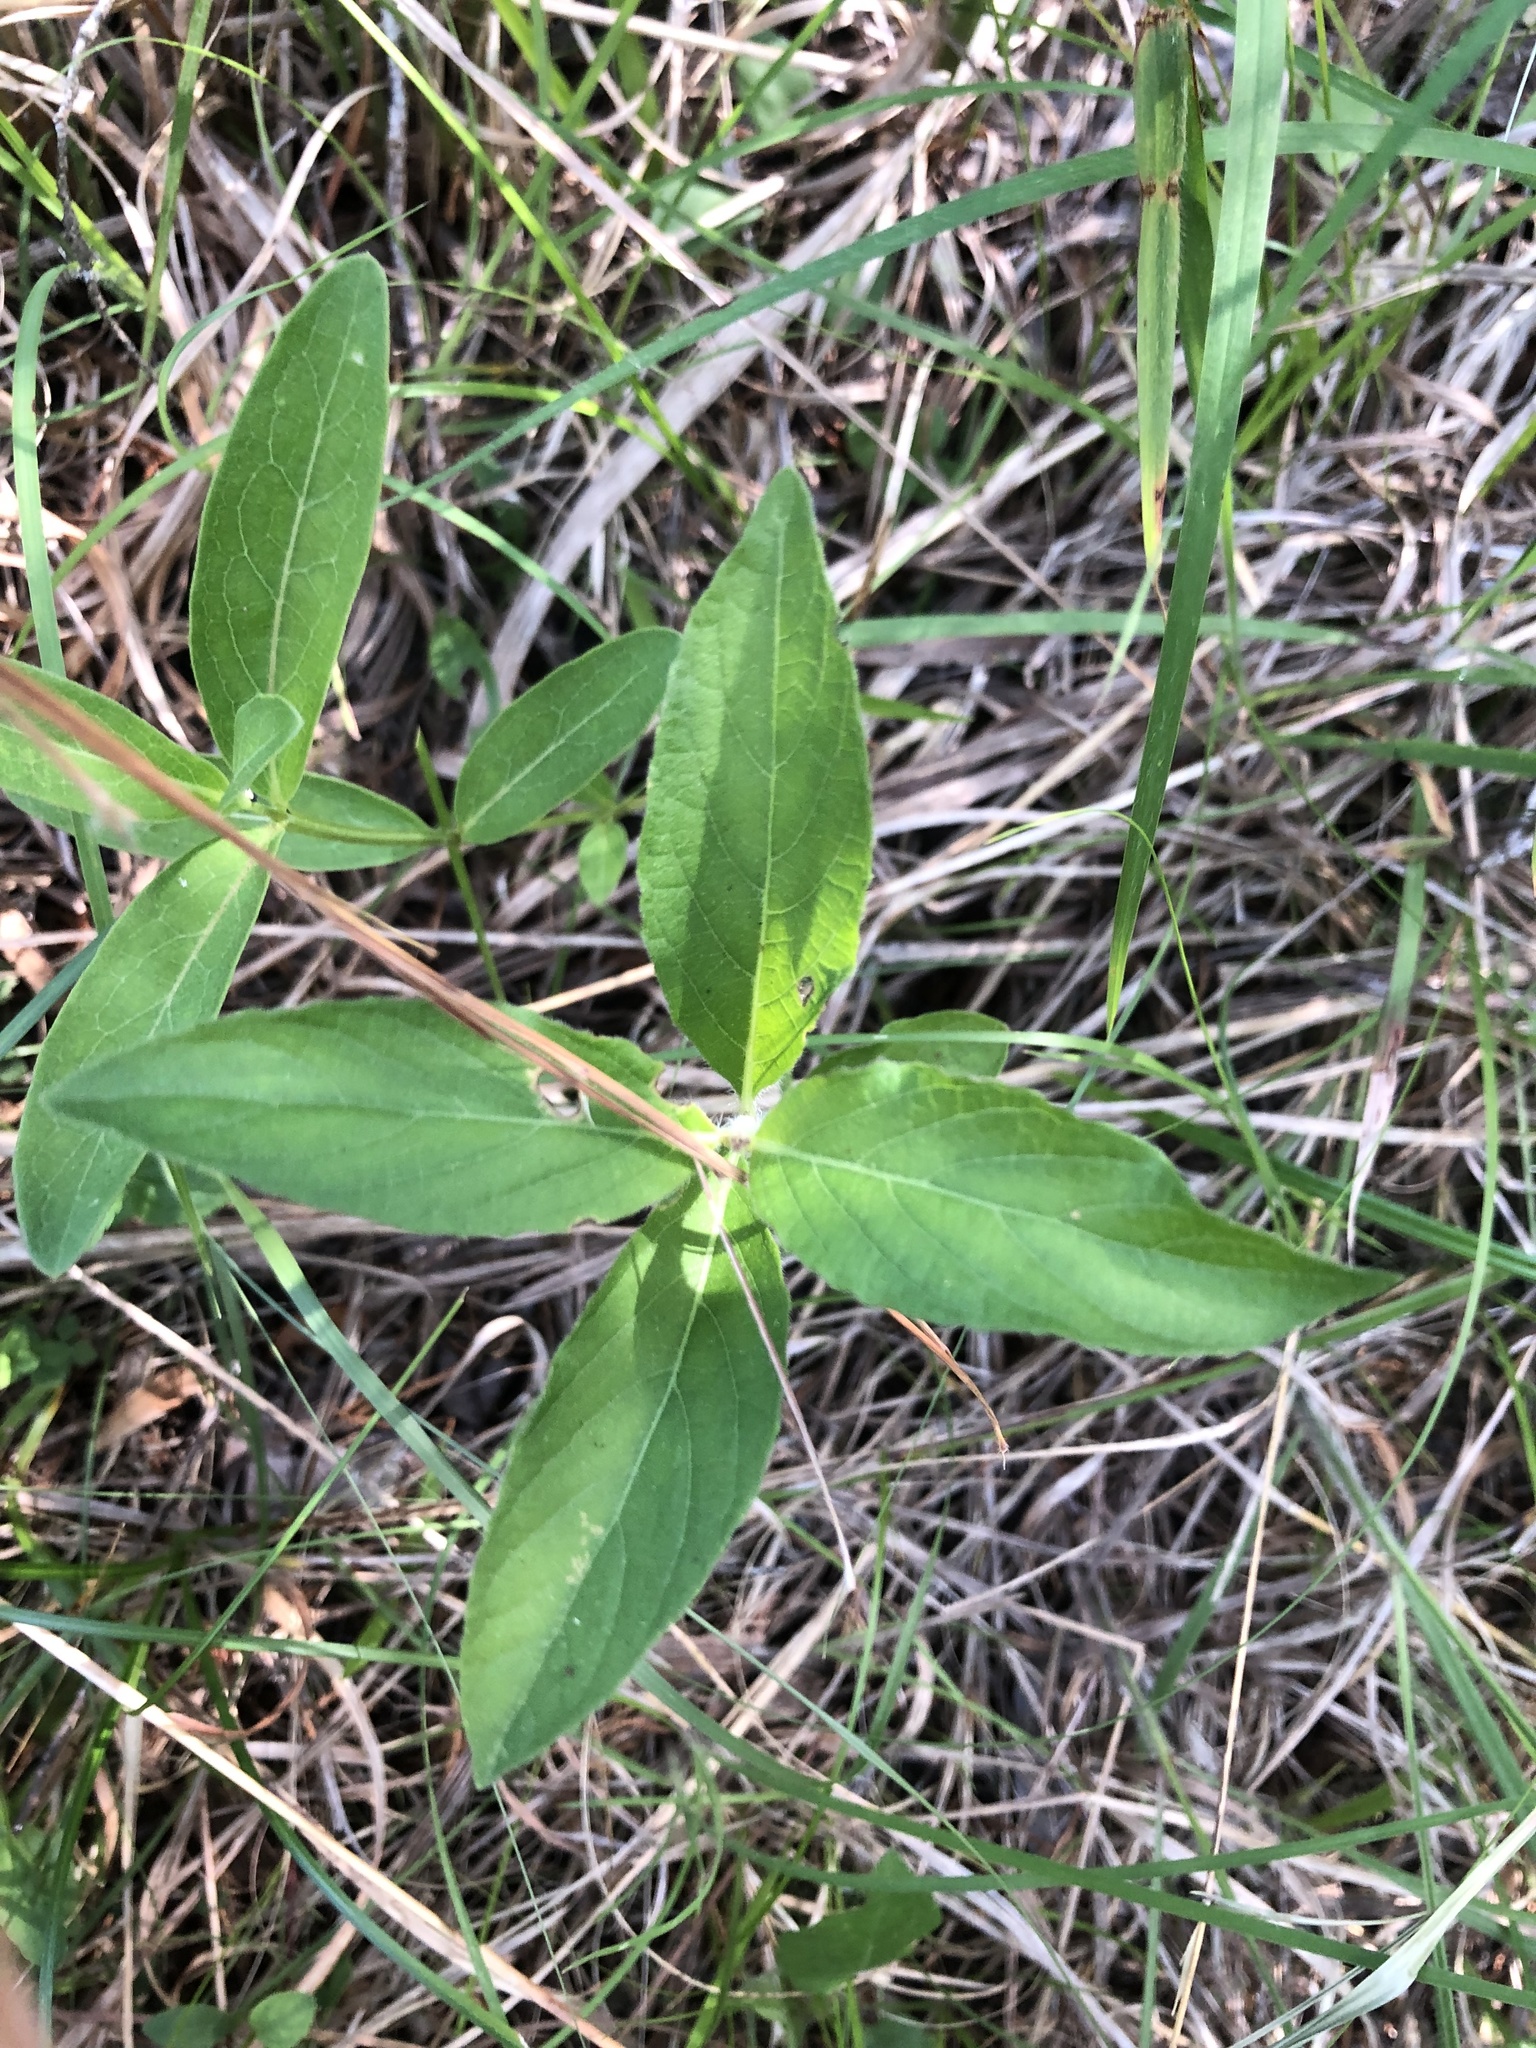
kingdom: Plantae
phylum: Tracheophyta
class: Magnoliopsida
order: Lamiales
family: Acanthaceae
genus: Ruellia
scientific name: Ruellia caroliniensis
